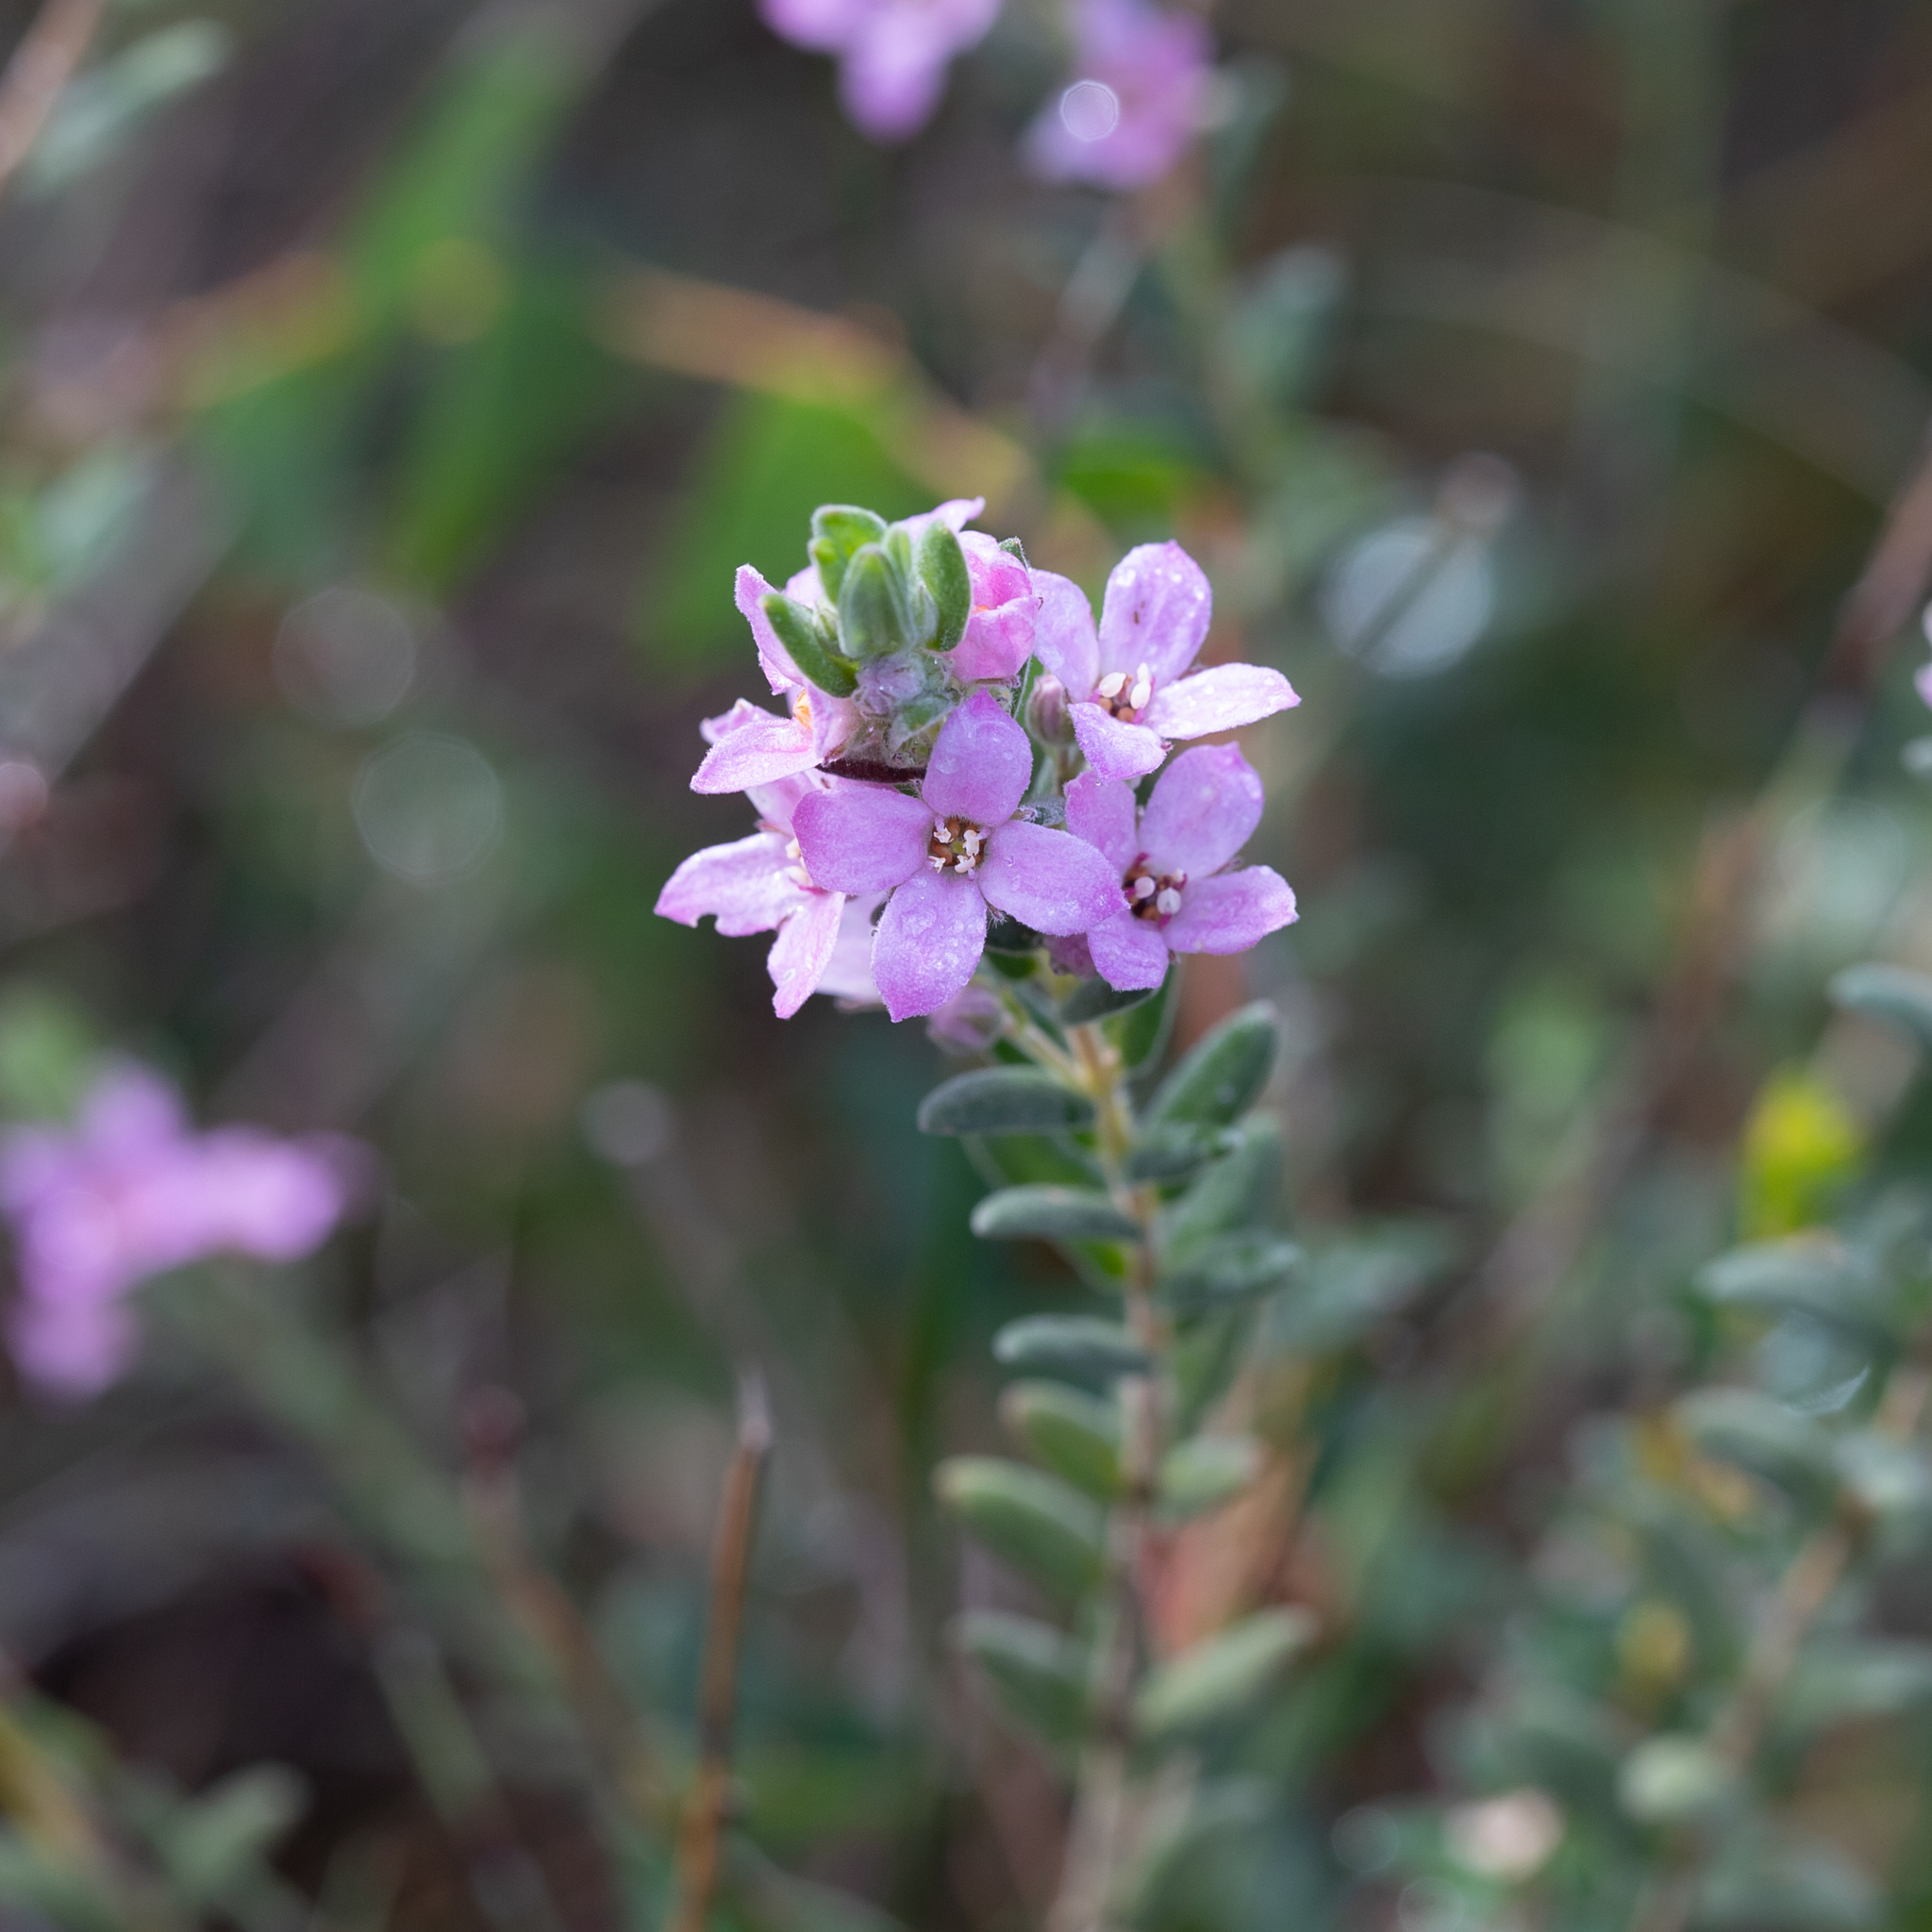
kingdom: Plantae
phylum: Tracheophyta
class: Magnoliopsida
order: Sapindales
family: Rutaceae
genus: Zieria
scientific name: Zieria veronicea
